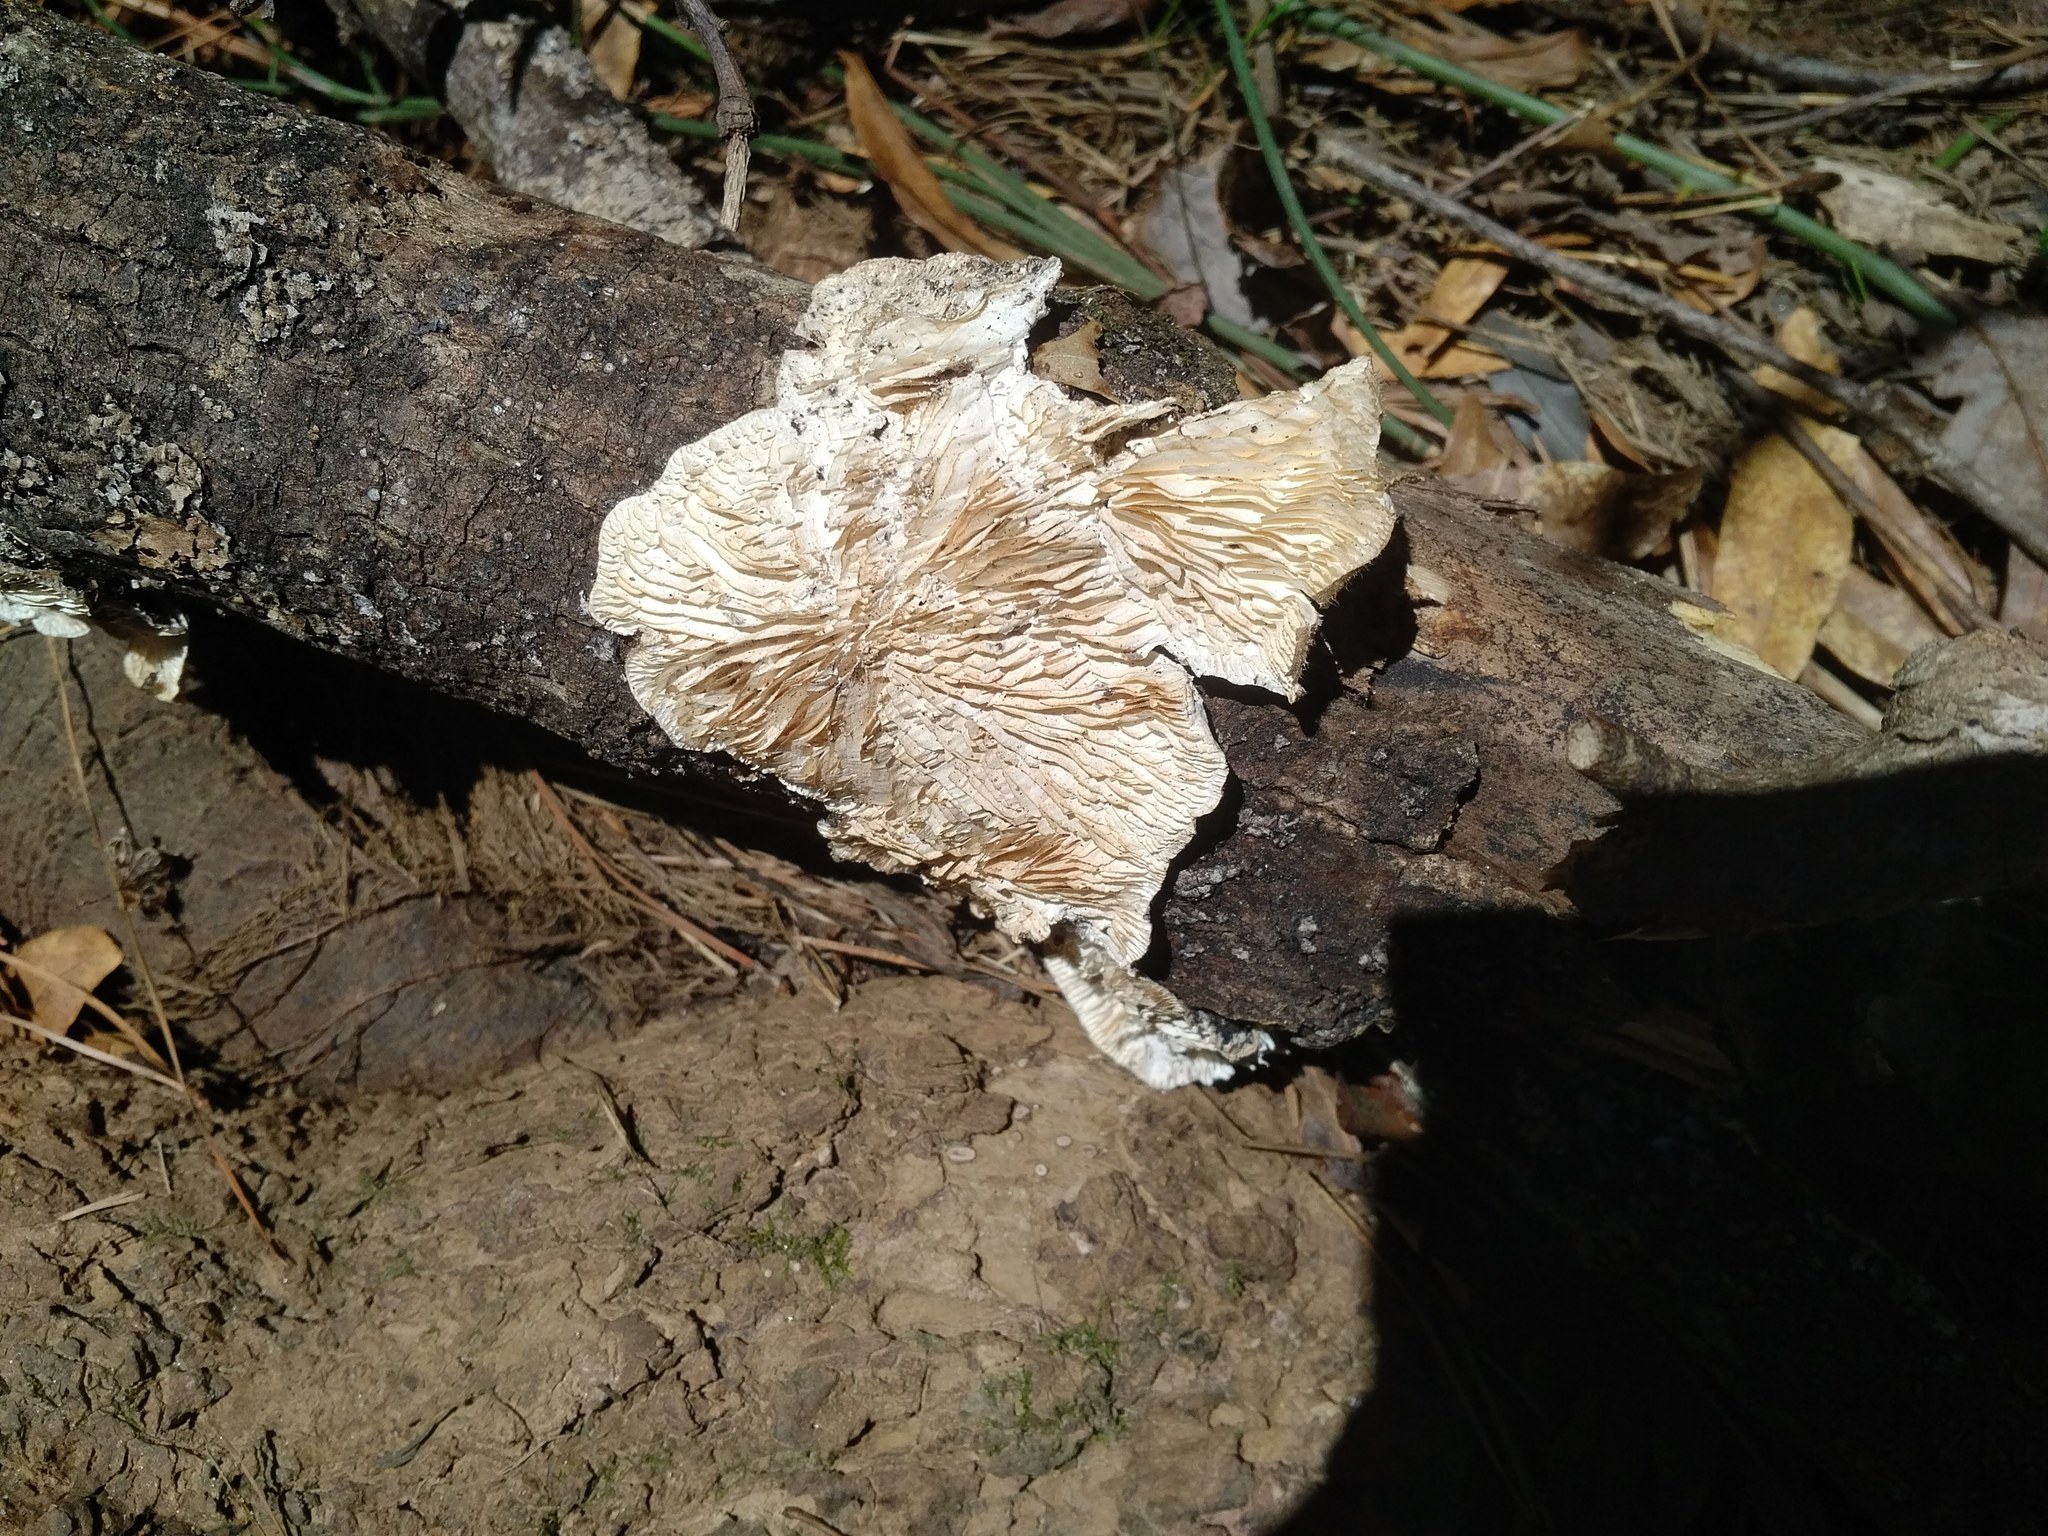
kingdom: Fungi
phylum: Basidiomycota
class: Agaricomycetes
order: Polyporales
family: Polyporaceae
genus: Lenzites
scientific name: Lenzites betulinus
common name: Birch mazegill
